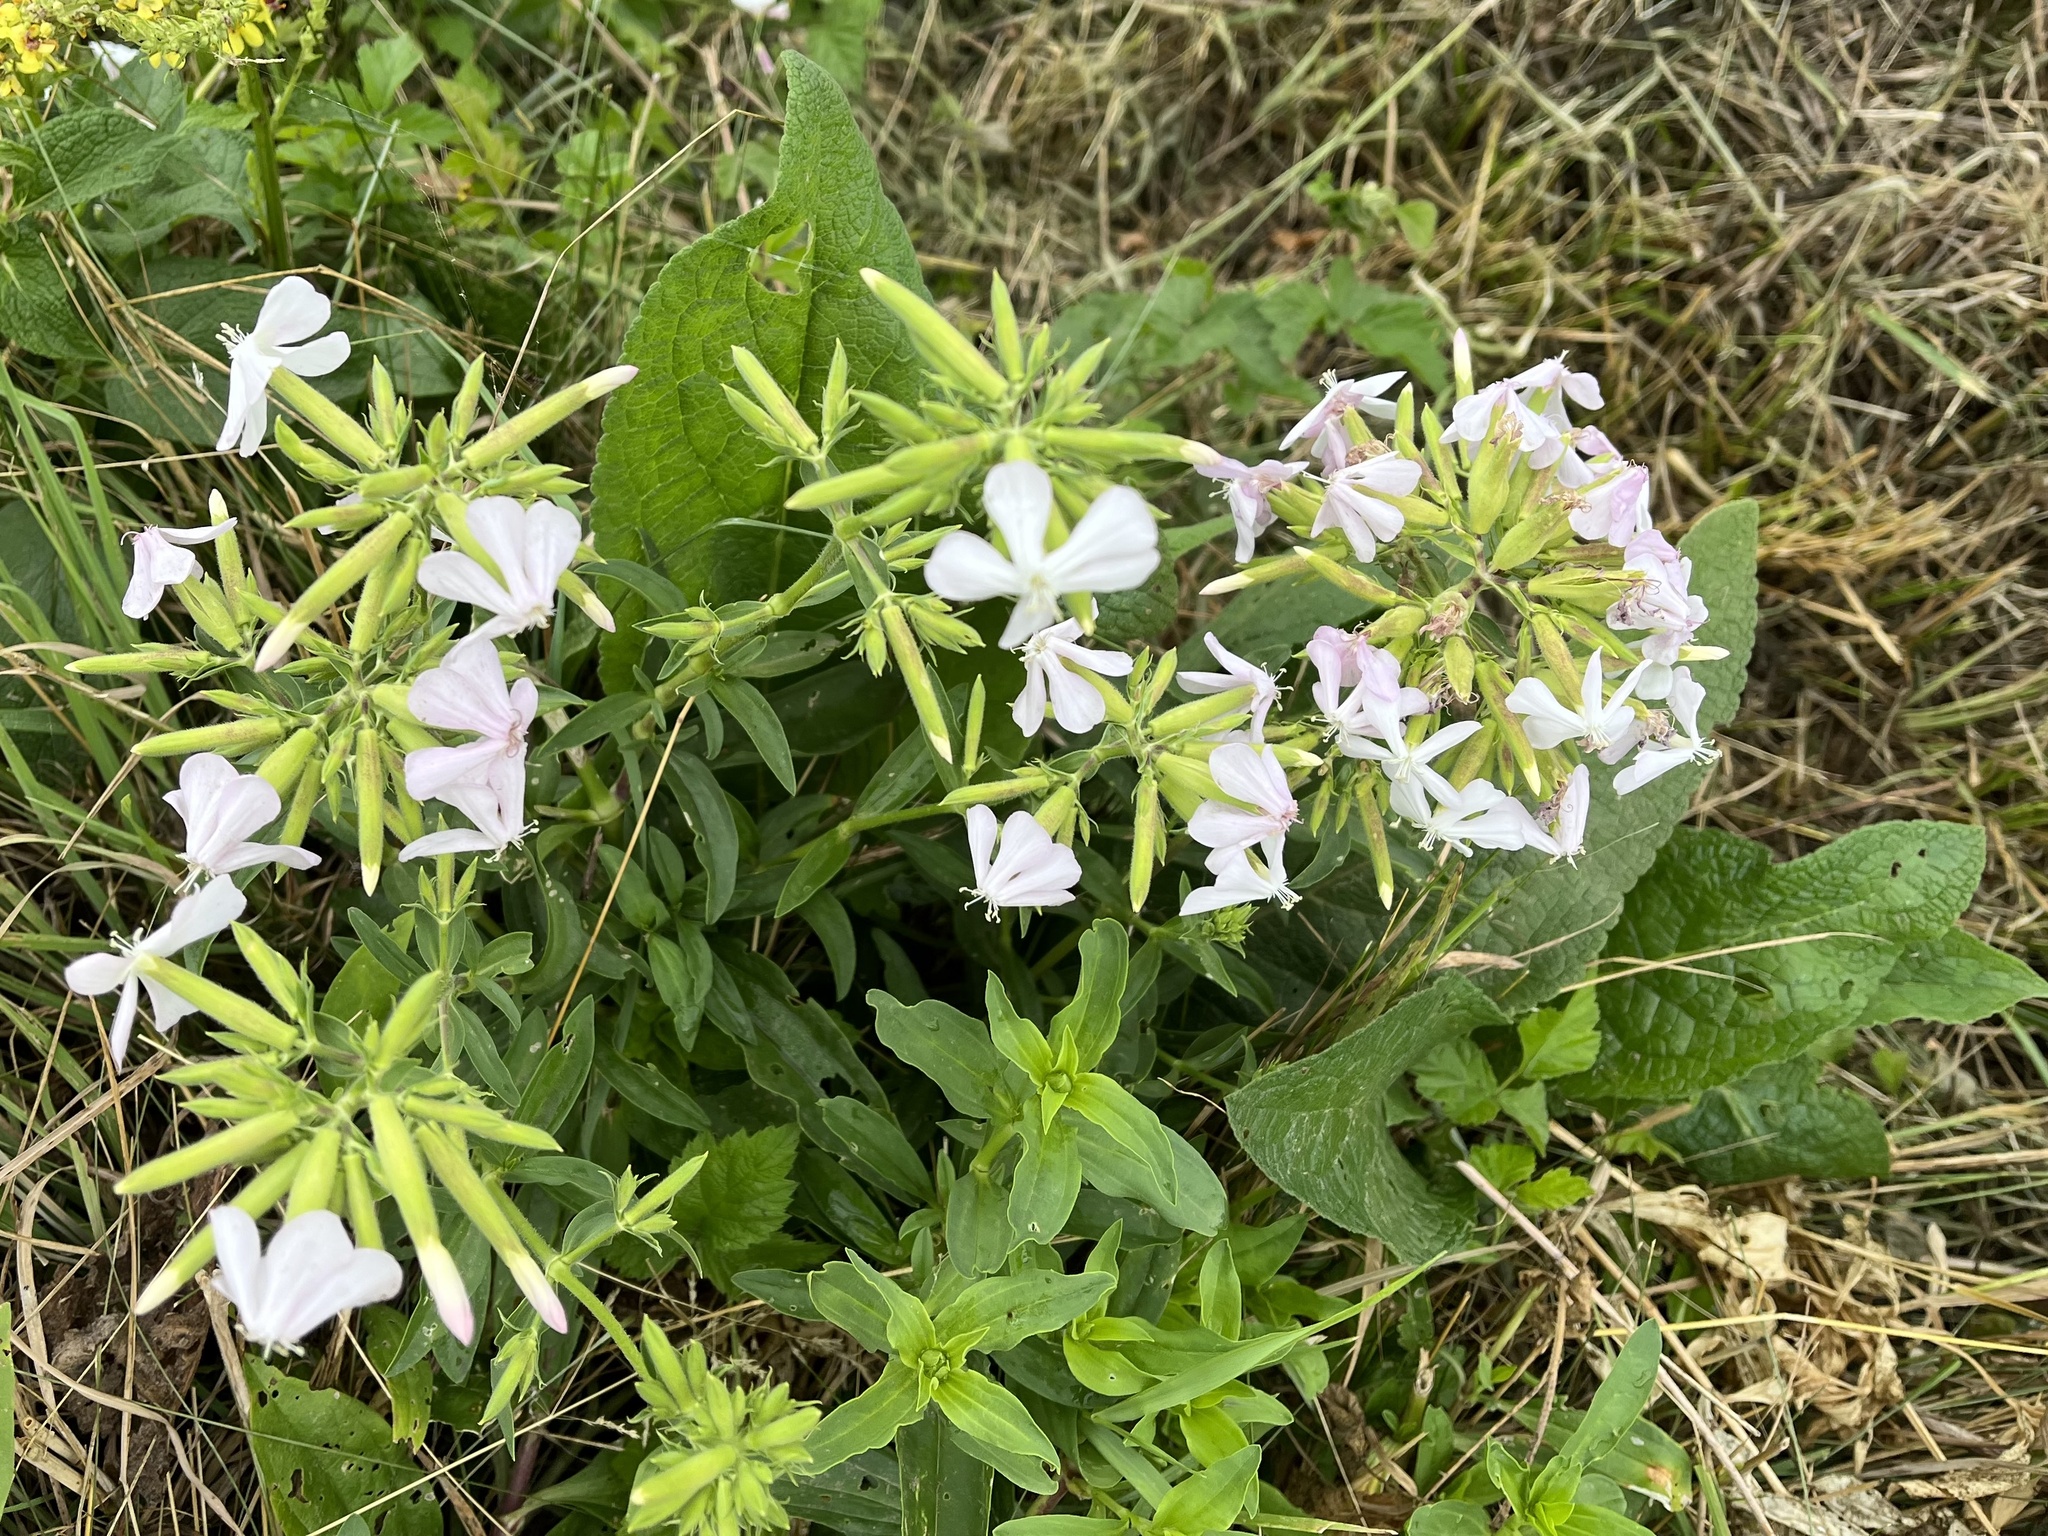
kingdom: Plantae
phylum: Tracheophyta
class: Magnoliopsida
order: Caryophyllales
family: Caryophyllaceae
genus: Saponaria
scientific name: Saponaria officinalis
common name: Soapwort
